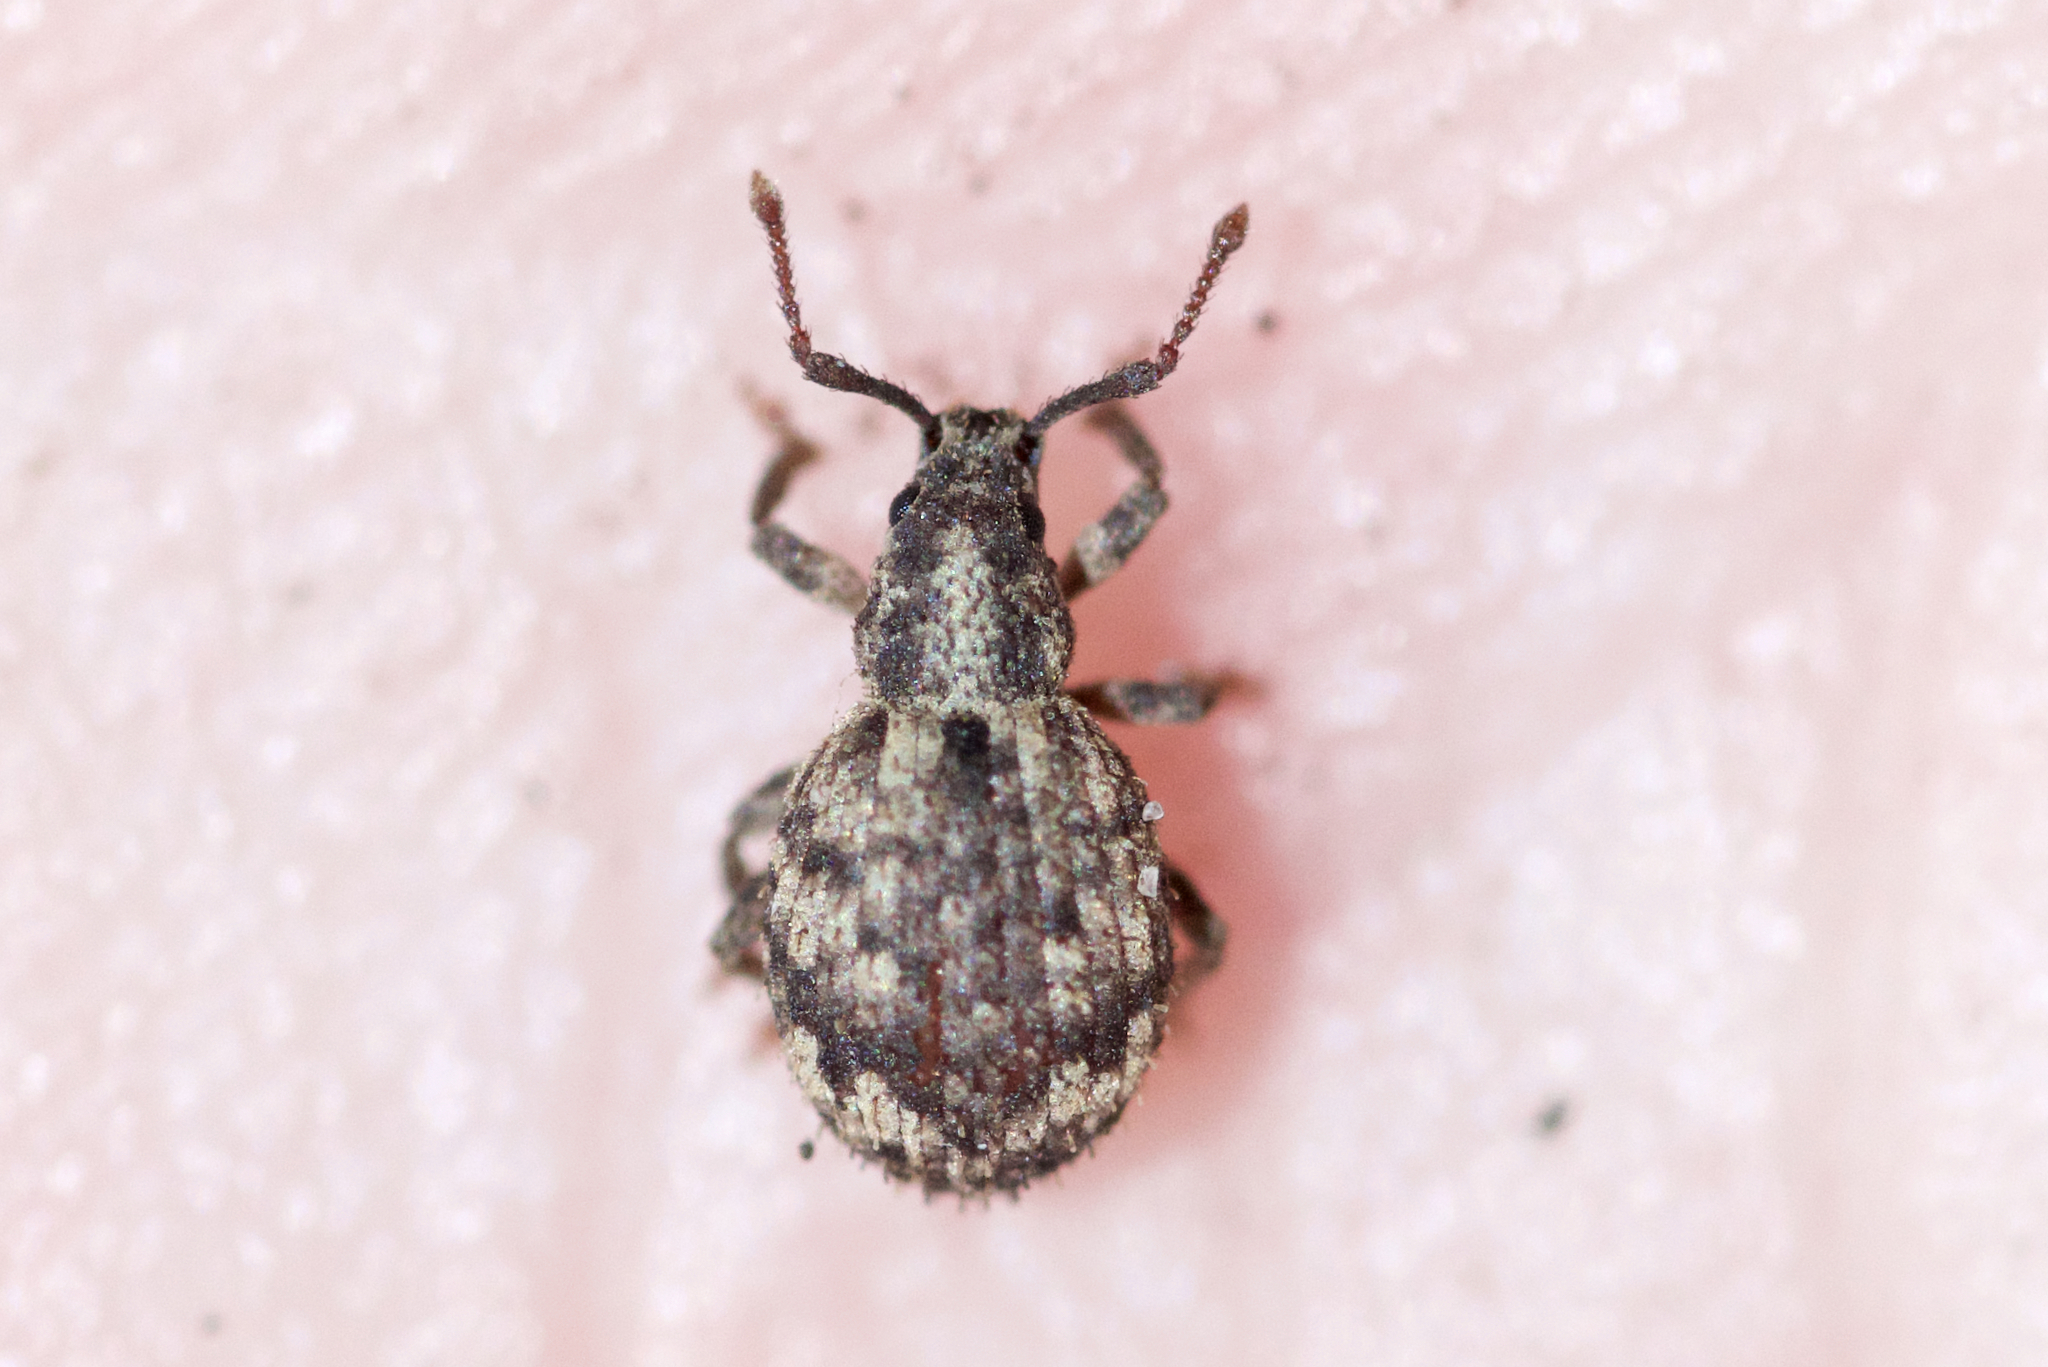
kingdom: Animalia
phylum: Arthropoda
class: Insecta
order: Coleoptera
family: Curculionidae
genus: Myosides
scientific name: Myosides seriehispidus
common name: Broadnosed weevil
